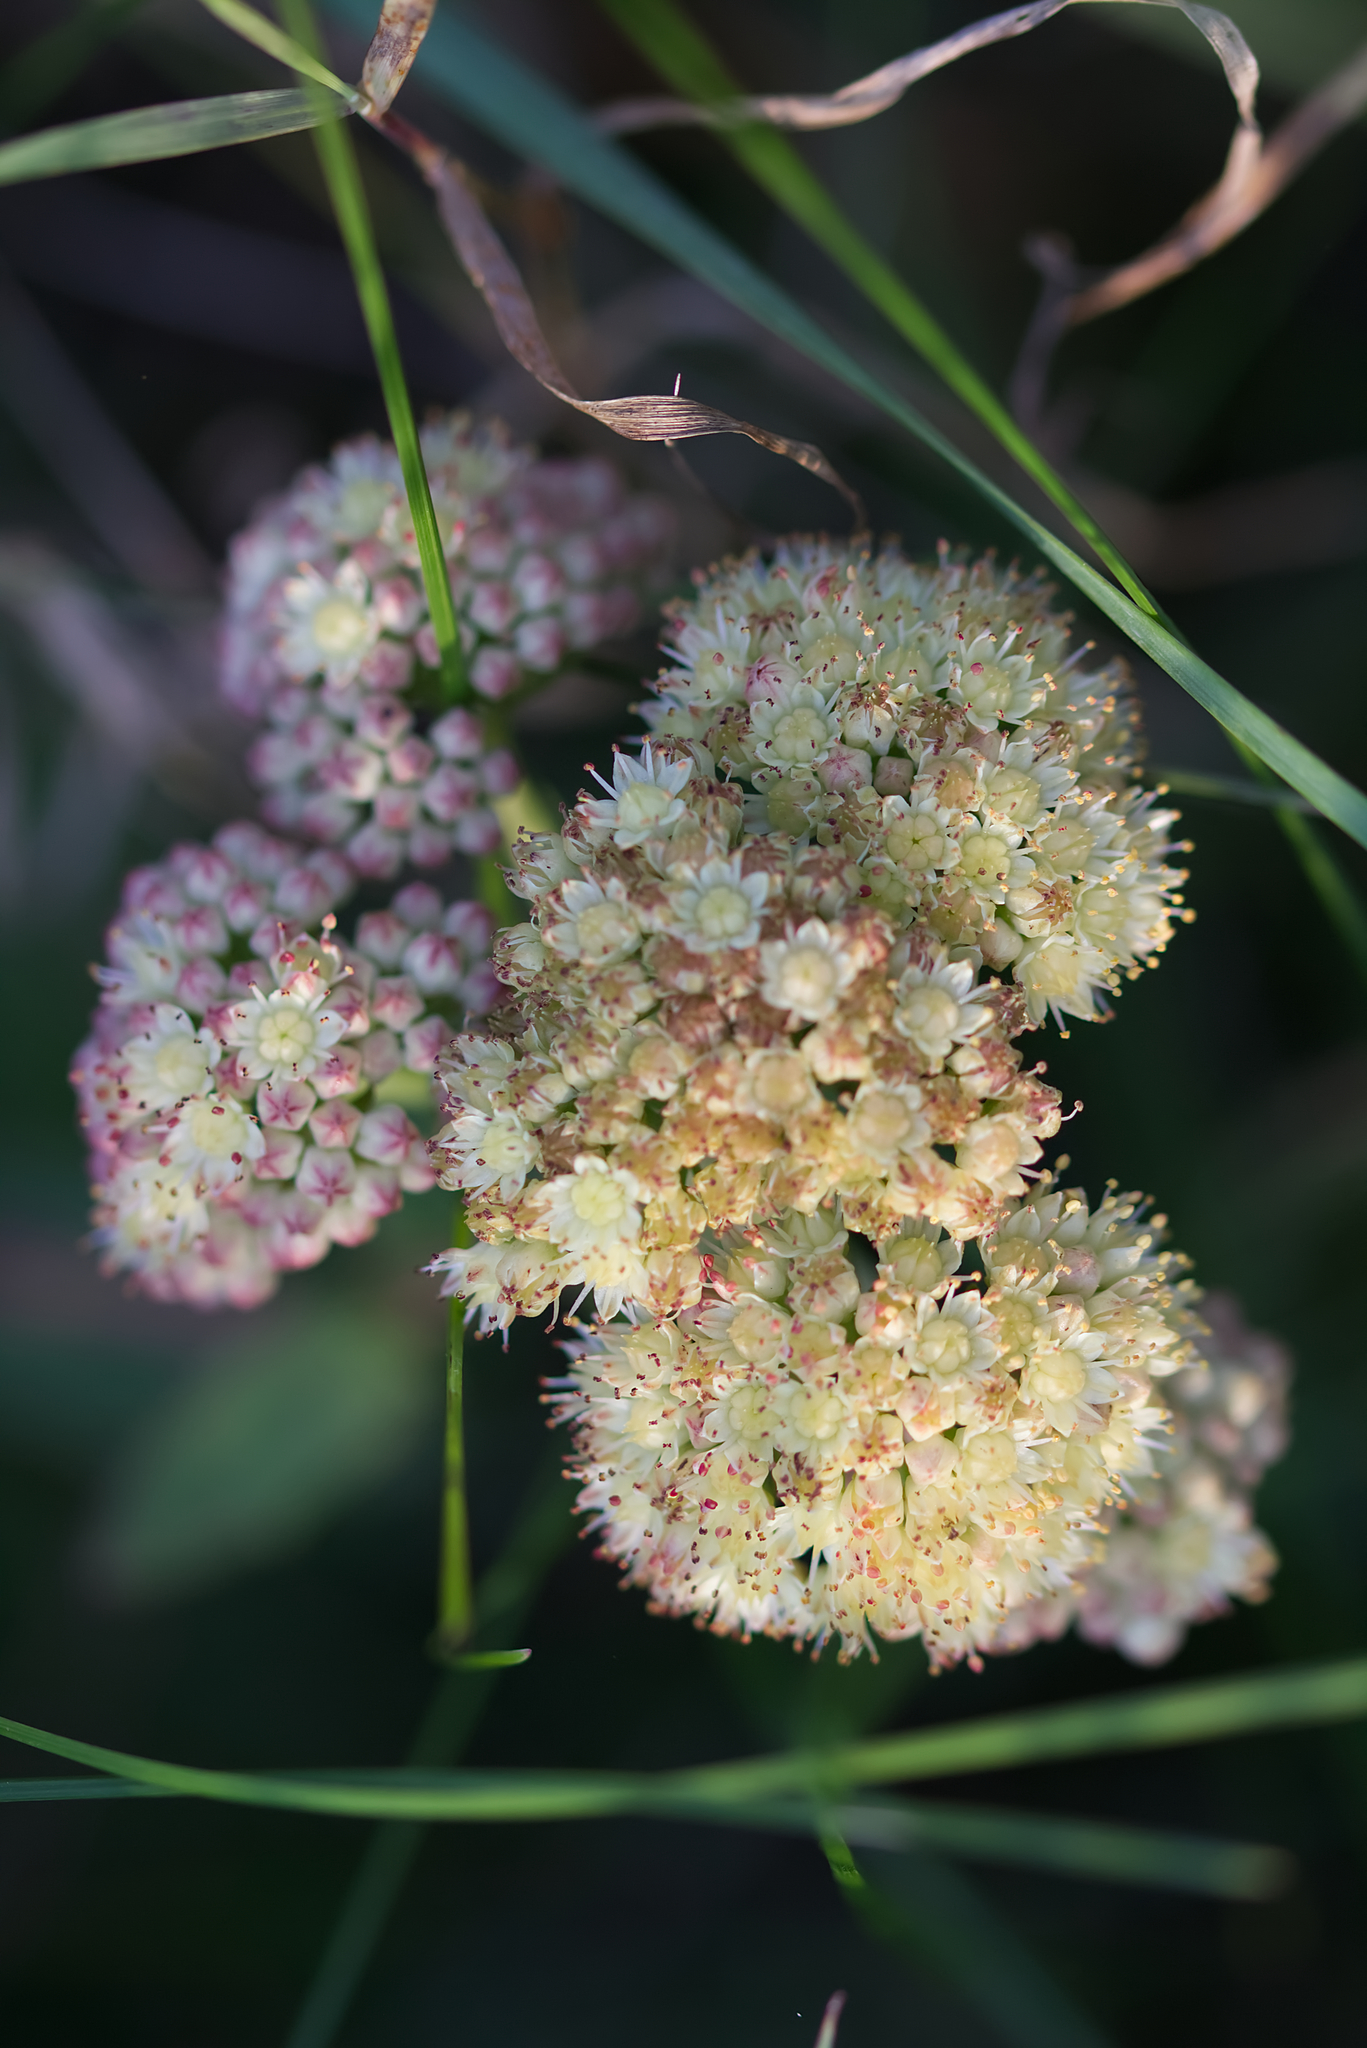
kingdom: Plantae
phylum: Tracheophyta
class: Magnoliopsida
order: Saxifragales
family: Crassulaceae
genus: Hylotelephium
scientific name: Hylotelephium maximum
